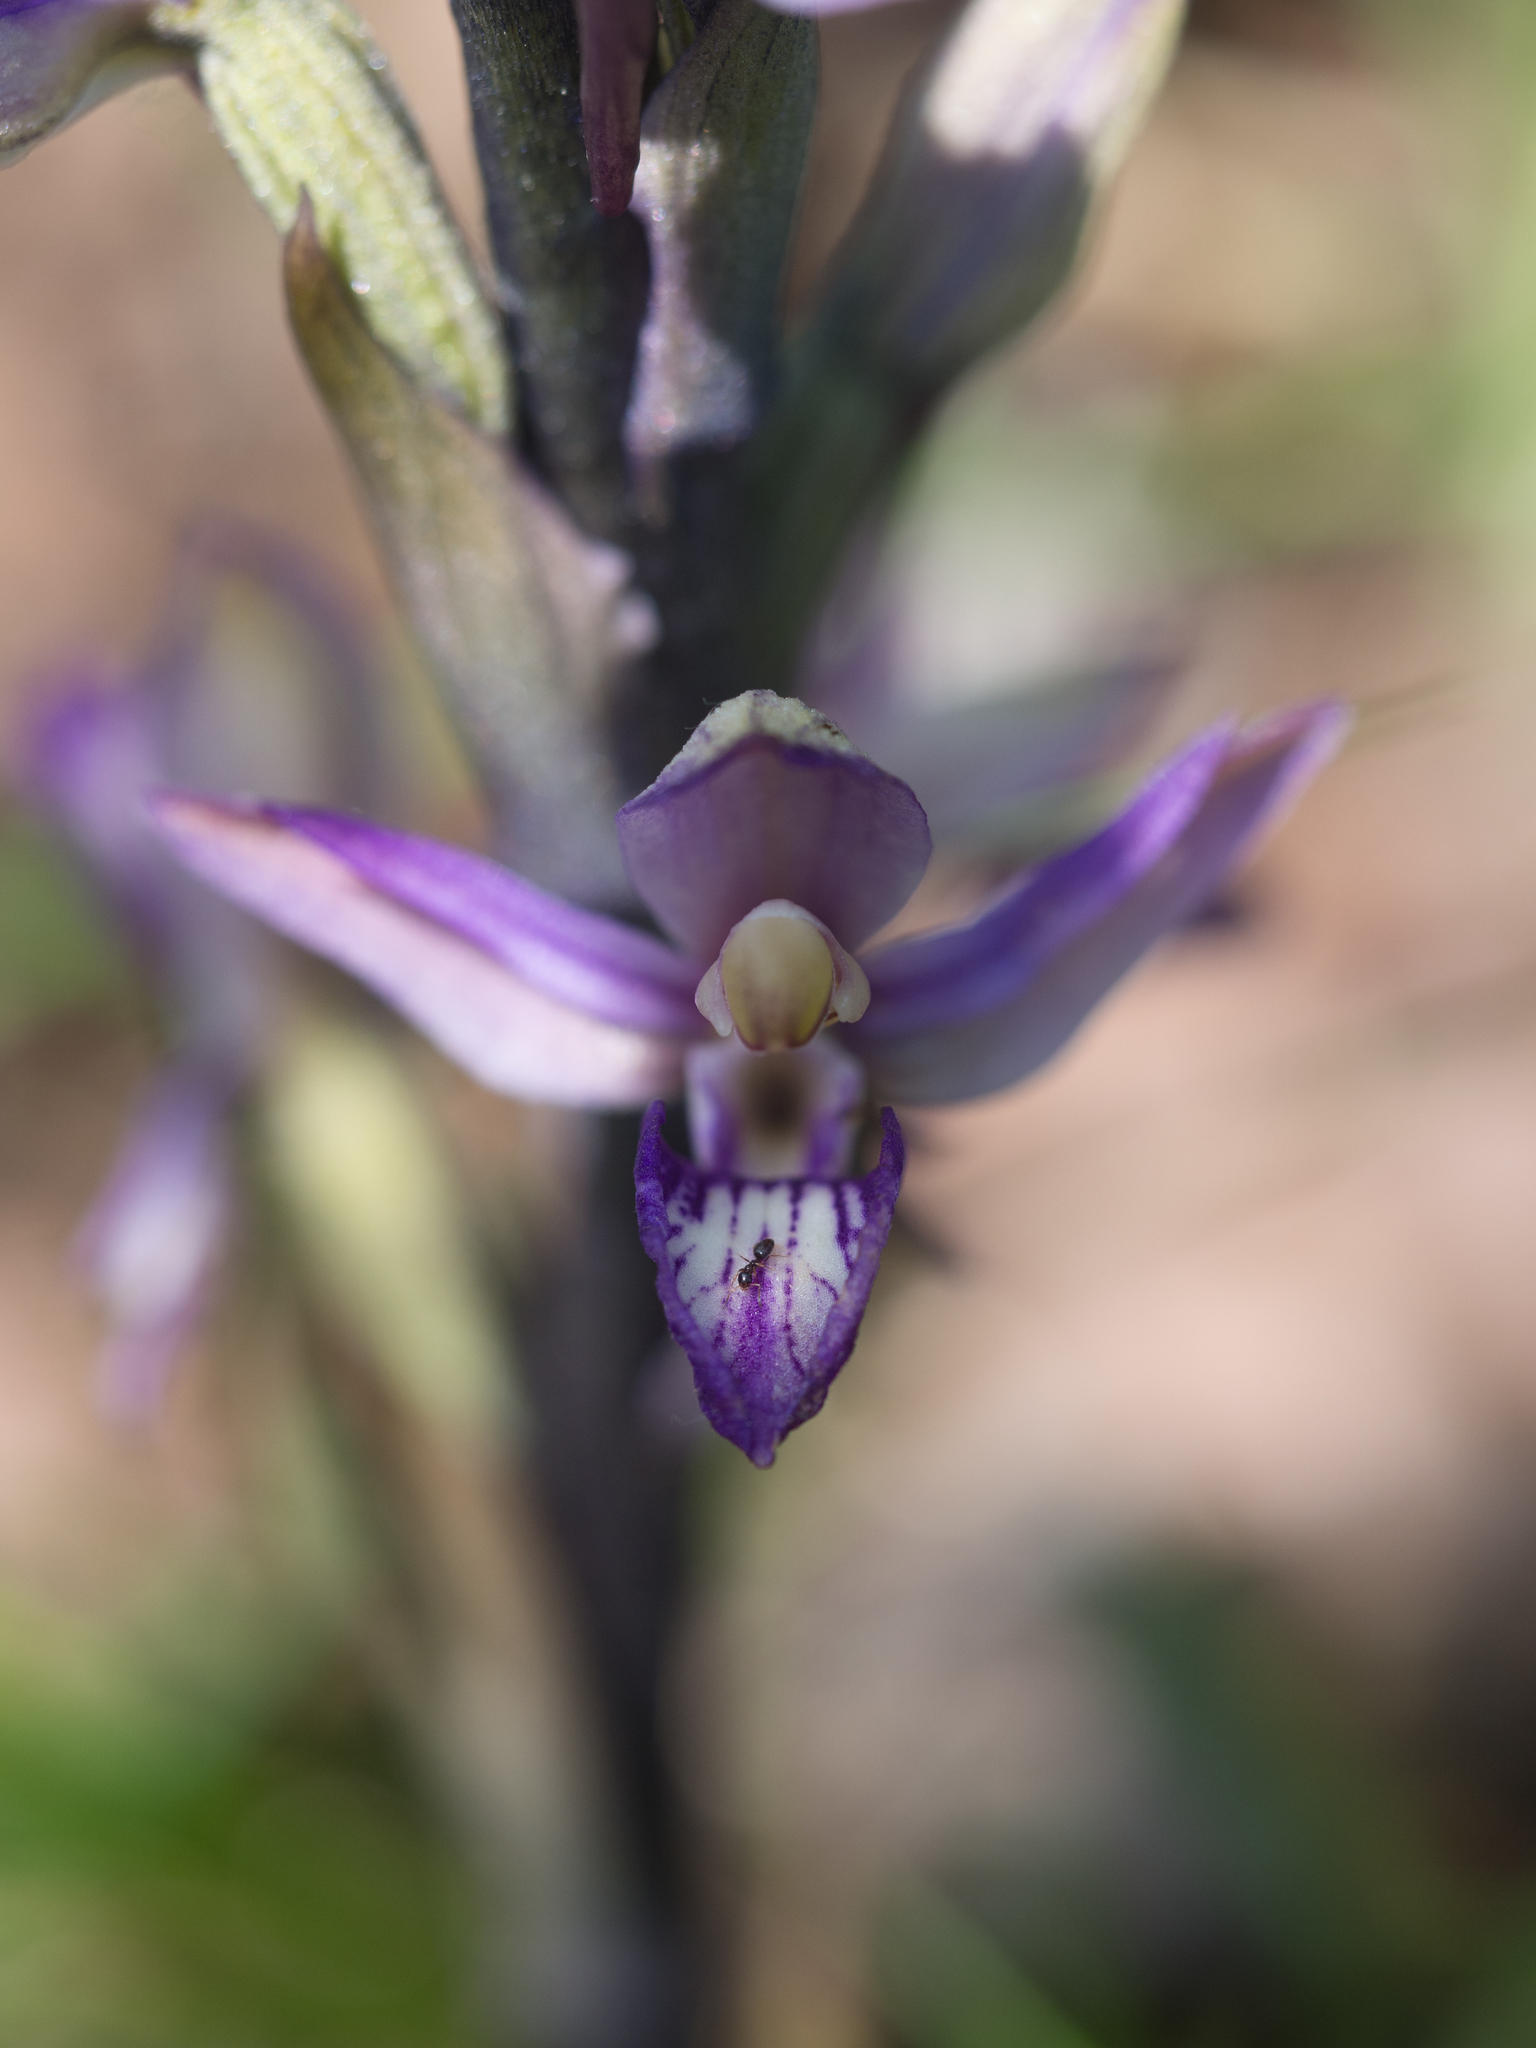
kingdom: Plantae
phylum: Tracheophyta
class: Liliopsida
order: Asparagales
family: Orchidaceae
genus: Limodorum
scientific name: Limodorum abortivum
